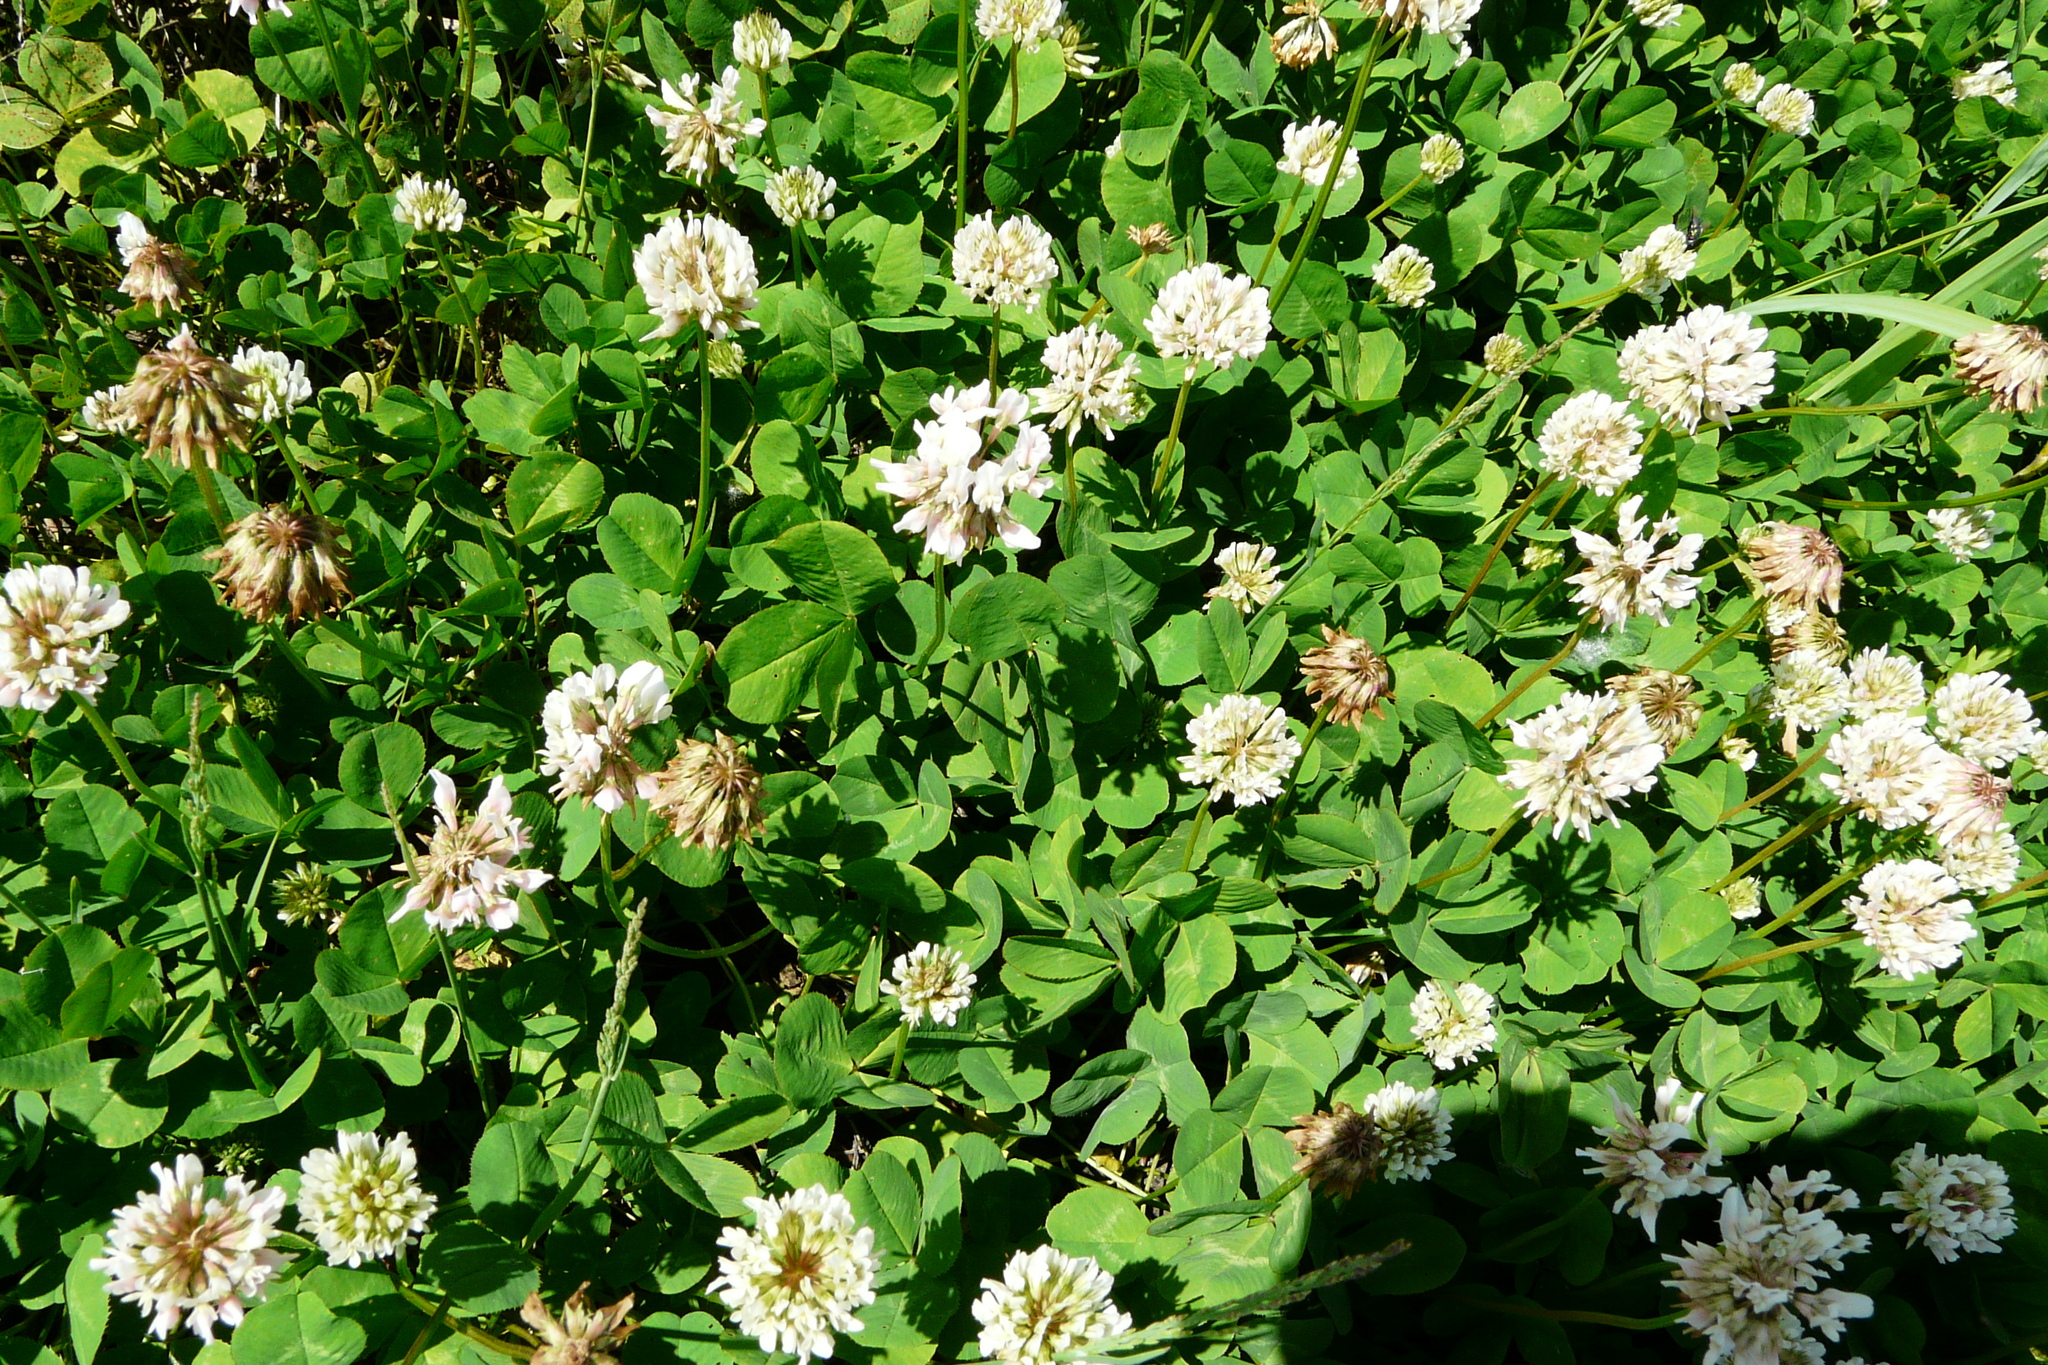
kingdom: Plantae
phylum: Tracheophyta
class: Magnoliopsida
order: Fabales
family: Fabaceae
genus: Trifolium
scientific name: Trifolium repens
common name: White clover
